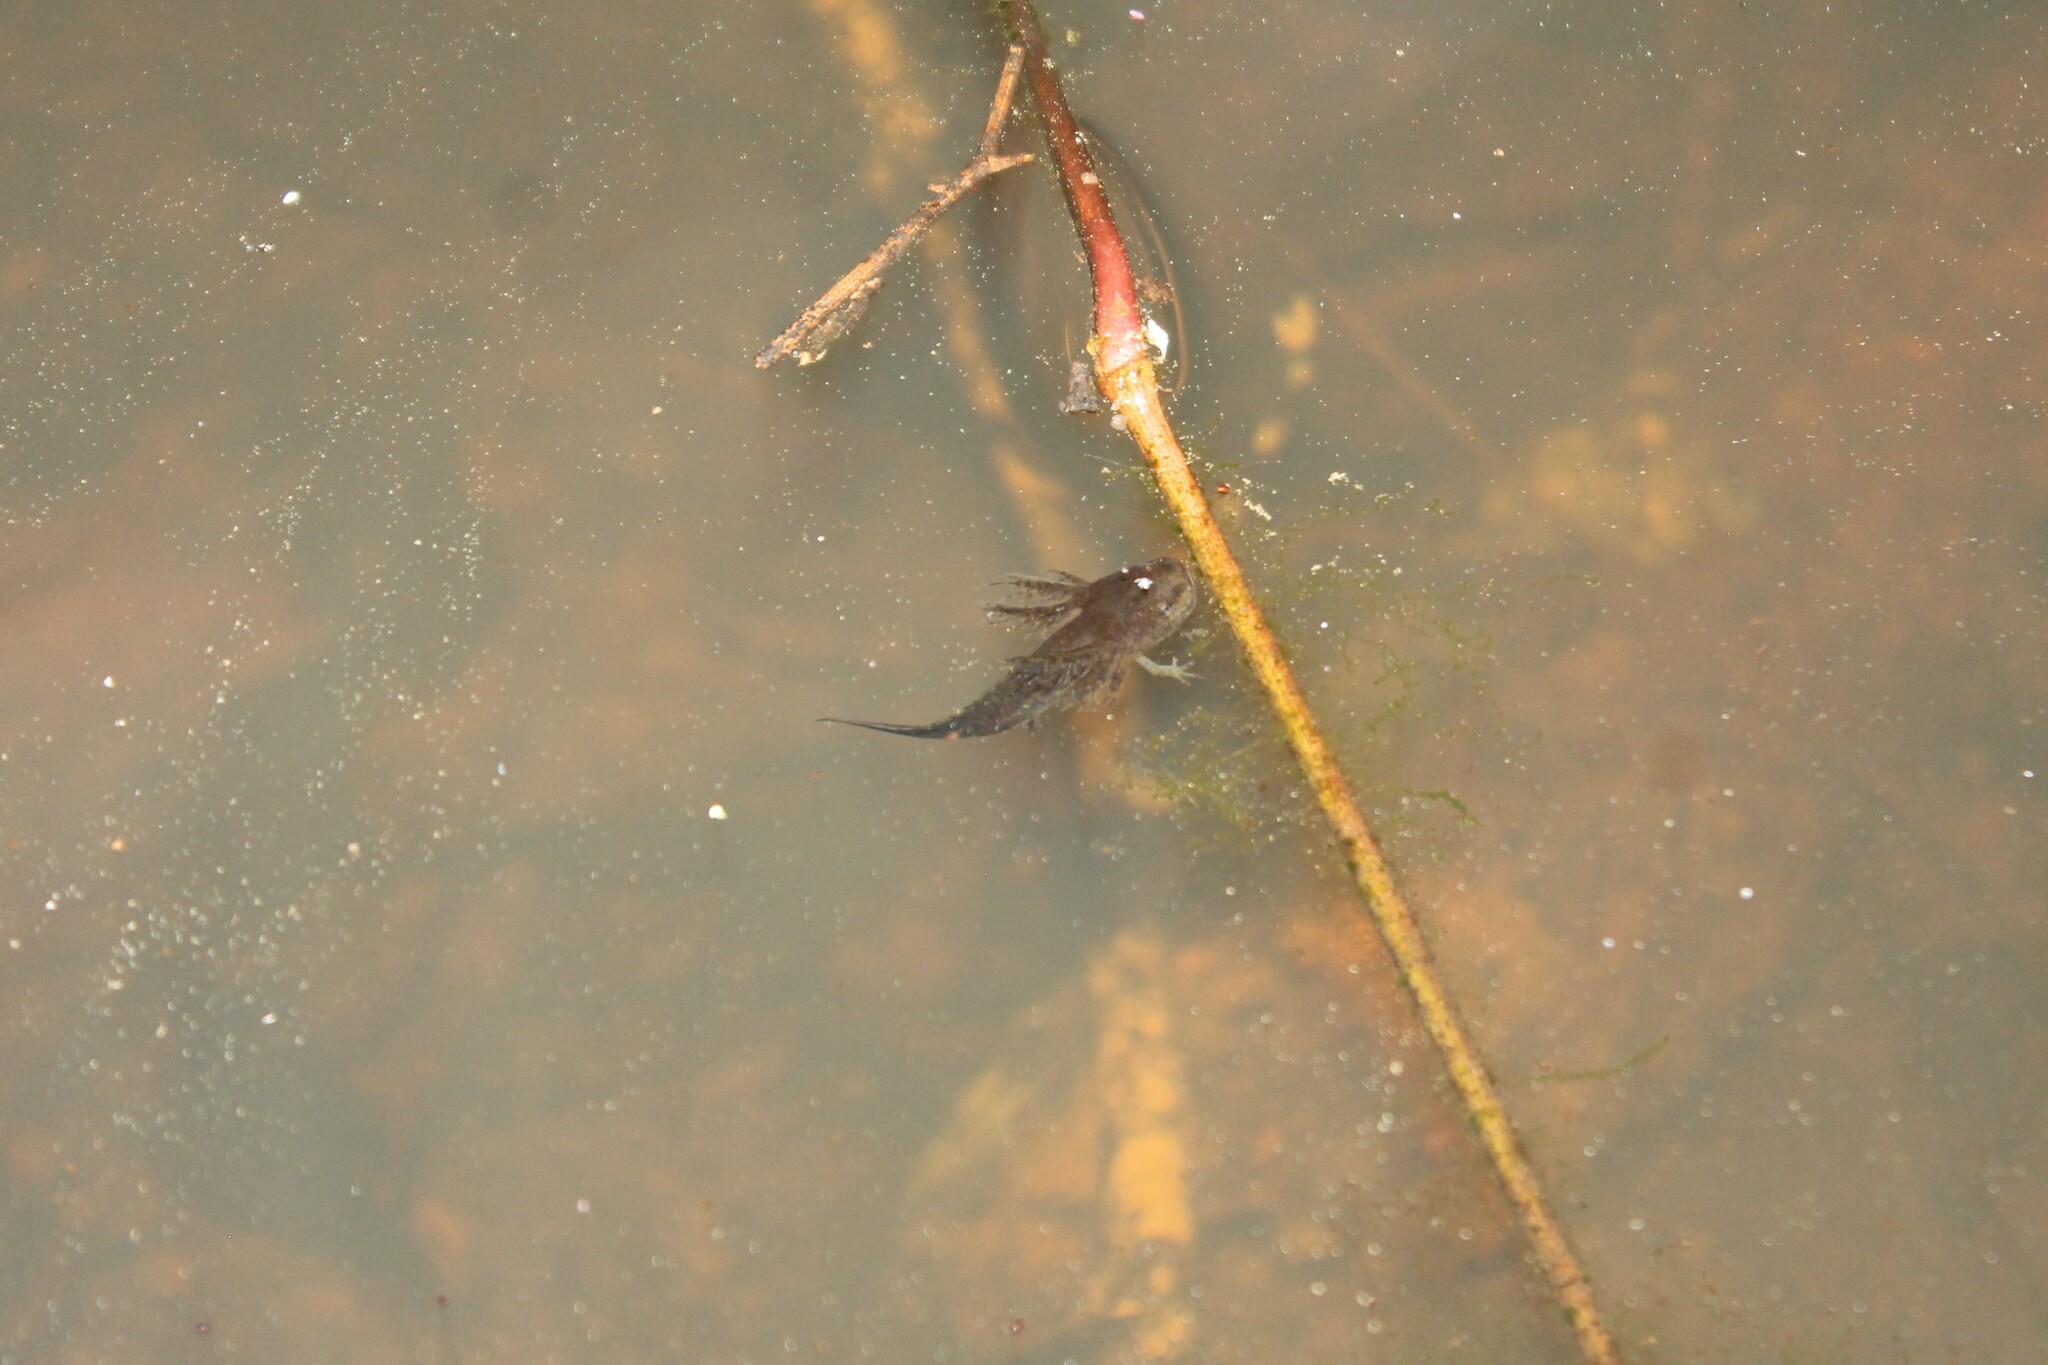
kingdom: Animalia
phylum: Chordata
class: Amphibia
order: Caudata
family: Ambystomatidae
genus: Ambystoma
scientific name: Ambystoma opacum
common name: Marbled salamander
